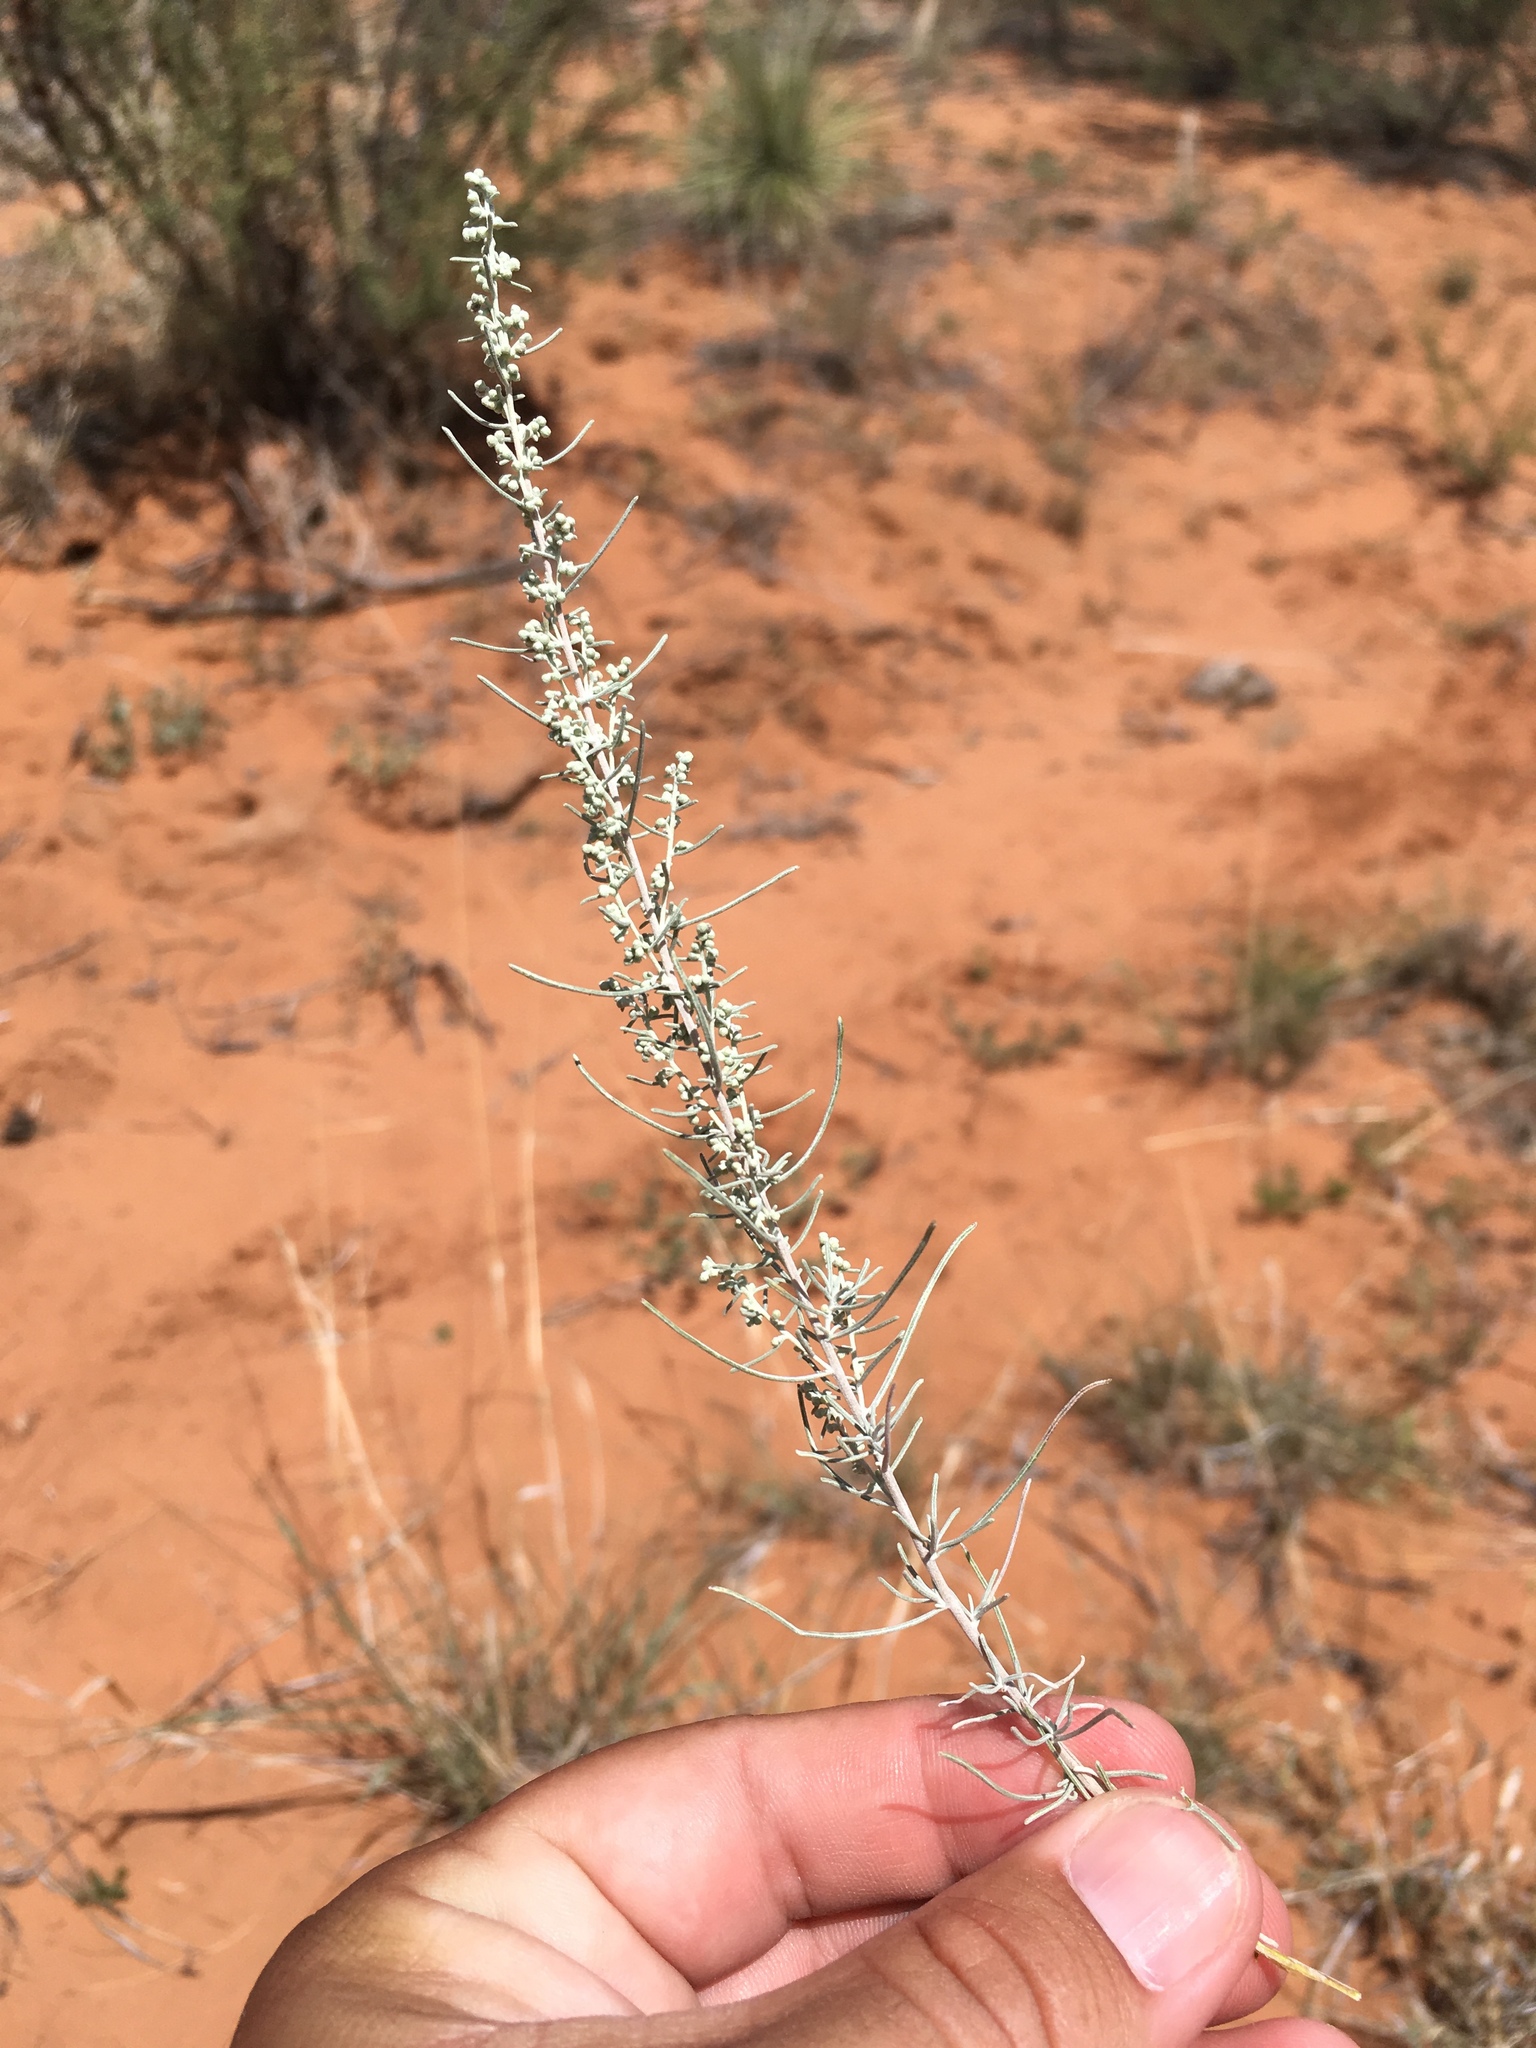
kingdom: Plantae
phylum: Tracheophyta
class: Magnoliopsida
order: Asterales
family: Asteraceae
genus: Artemisia
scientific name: Artemisia filifolia
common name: Sand-sage
